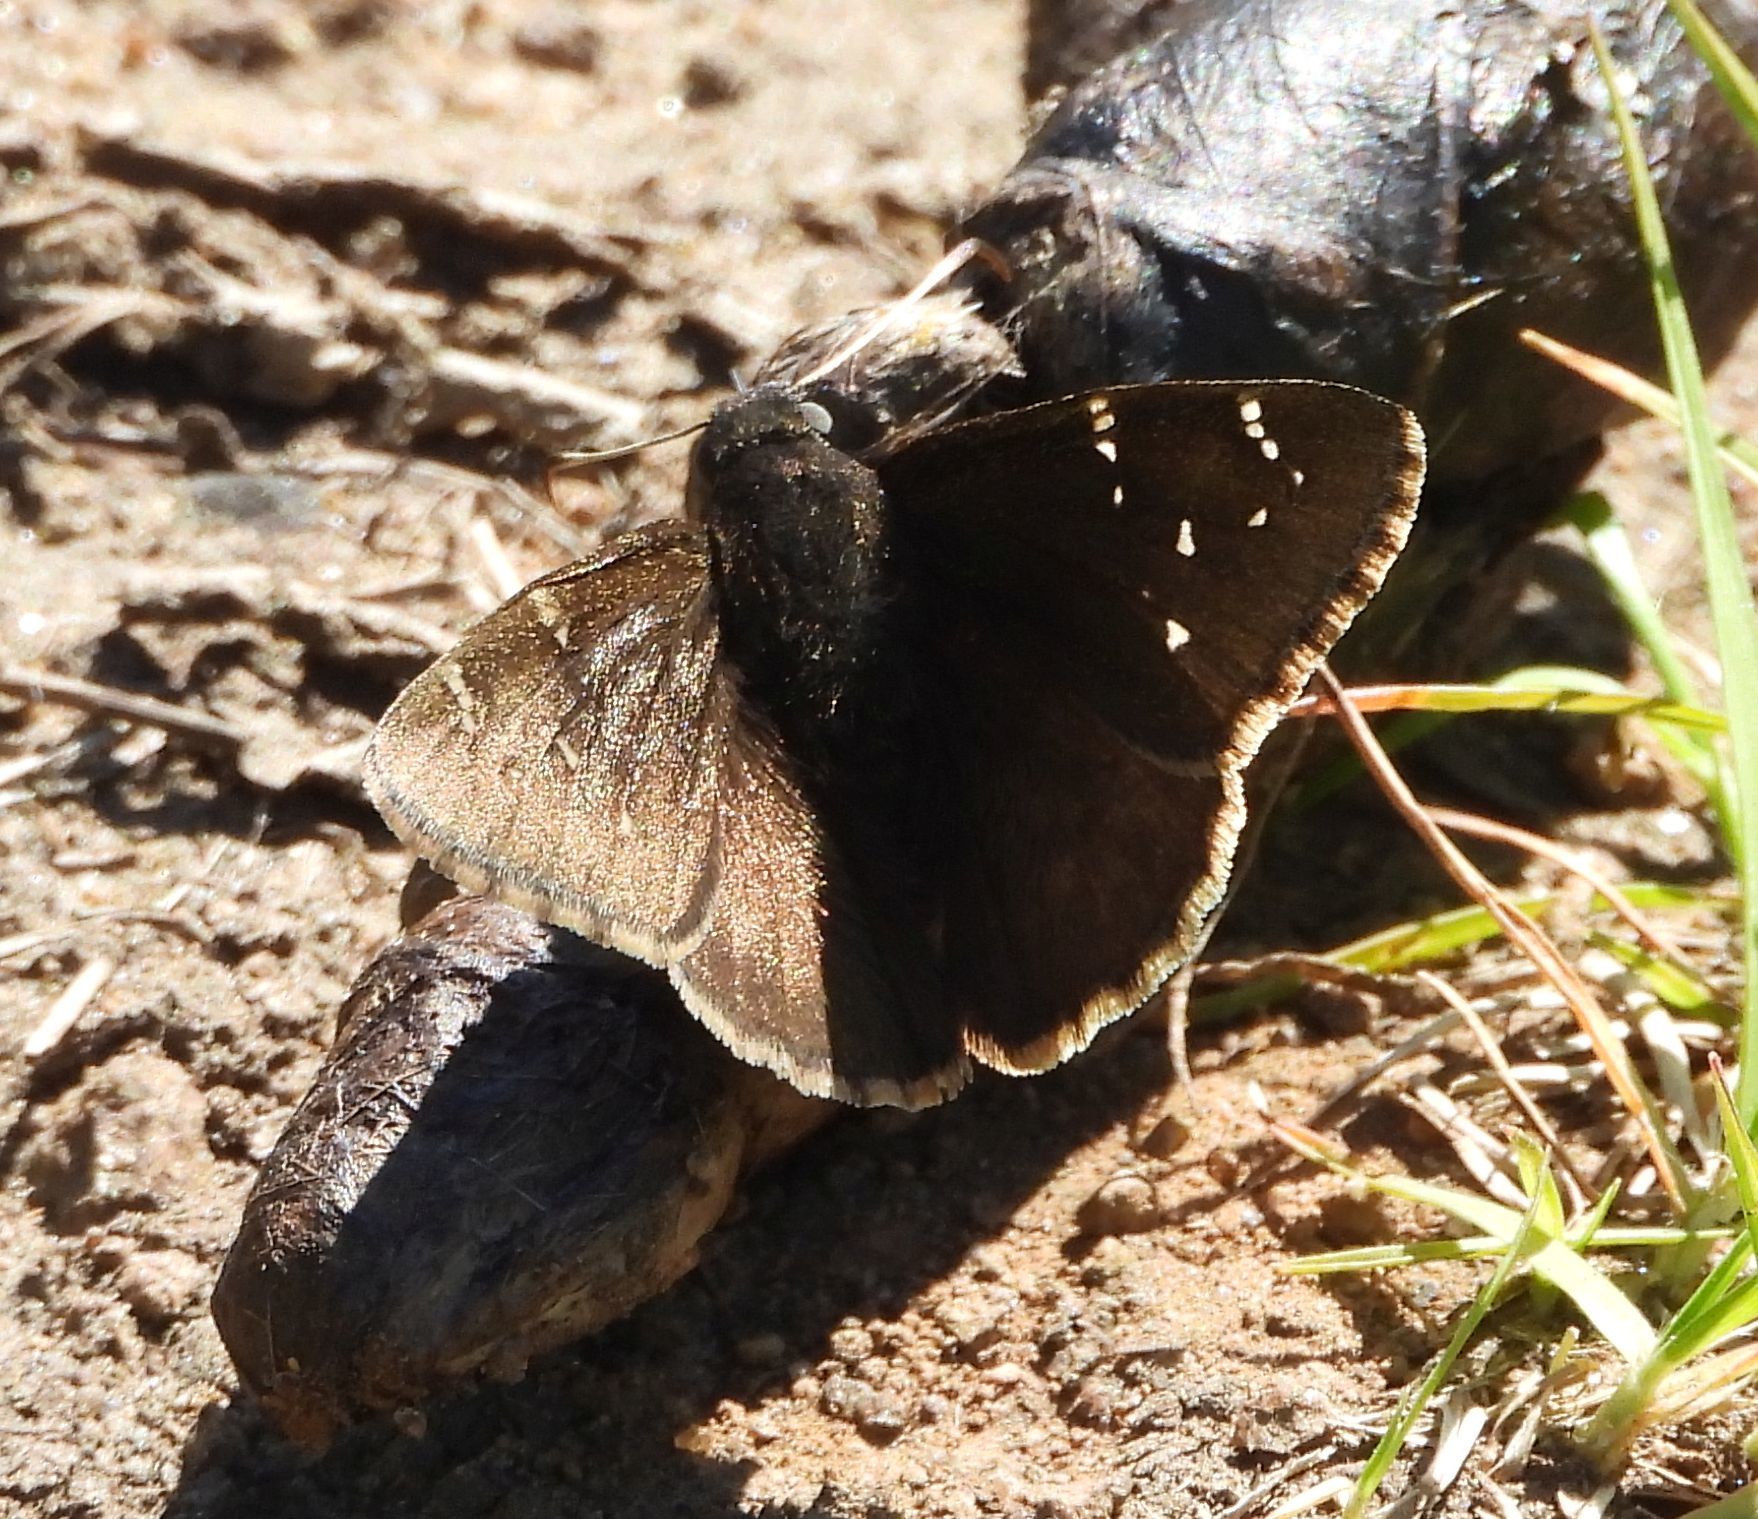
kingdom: Animalia
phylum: Arthropoda
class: Insecta
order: Lepidoptera
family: Hesperiidae
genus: Thorybes
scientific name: Thorybes pylades
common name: Northern cloudywing
